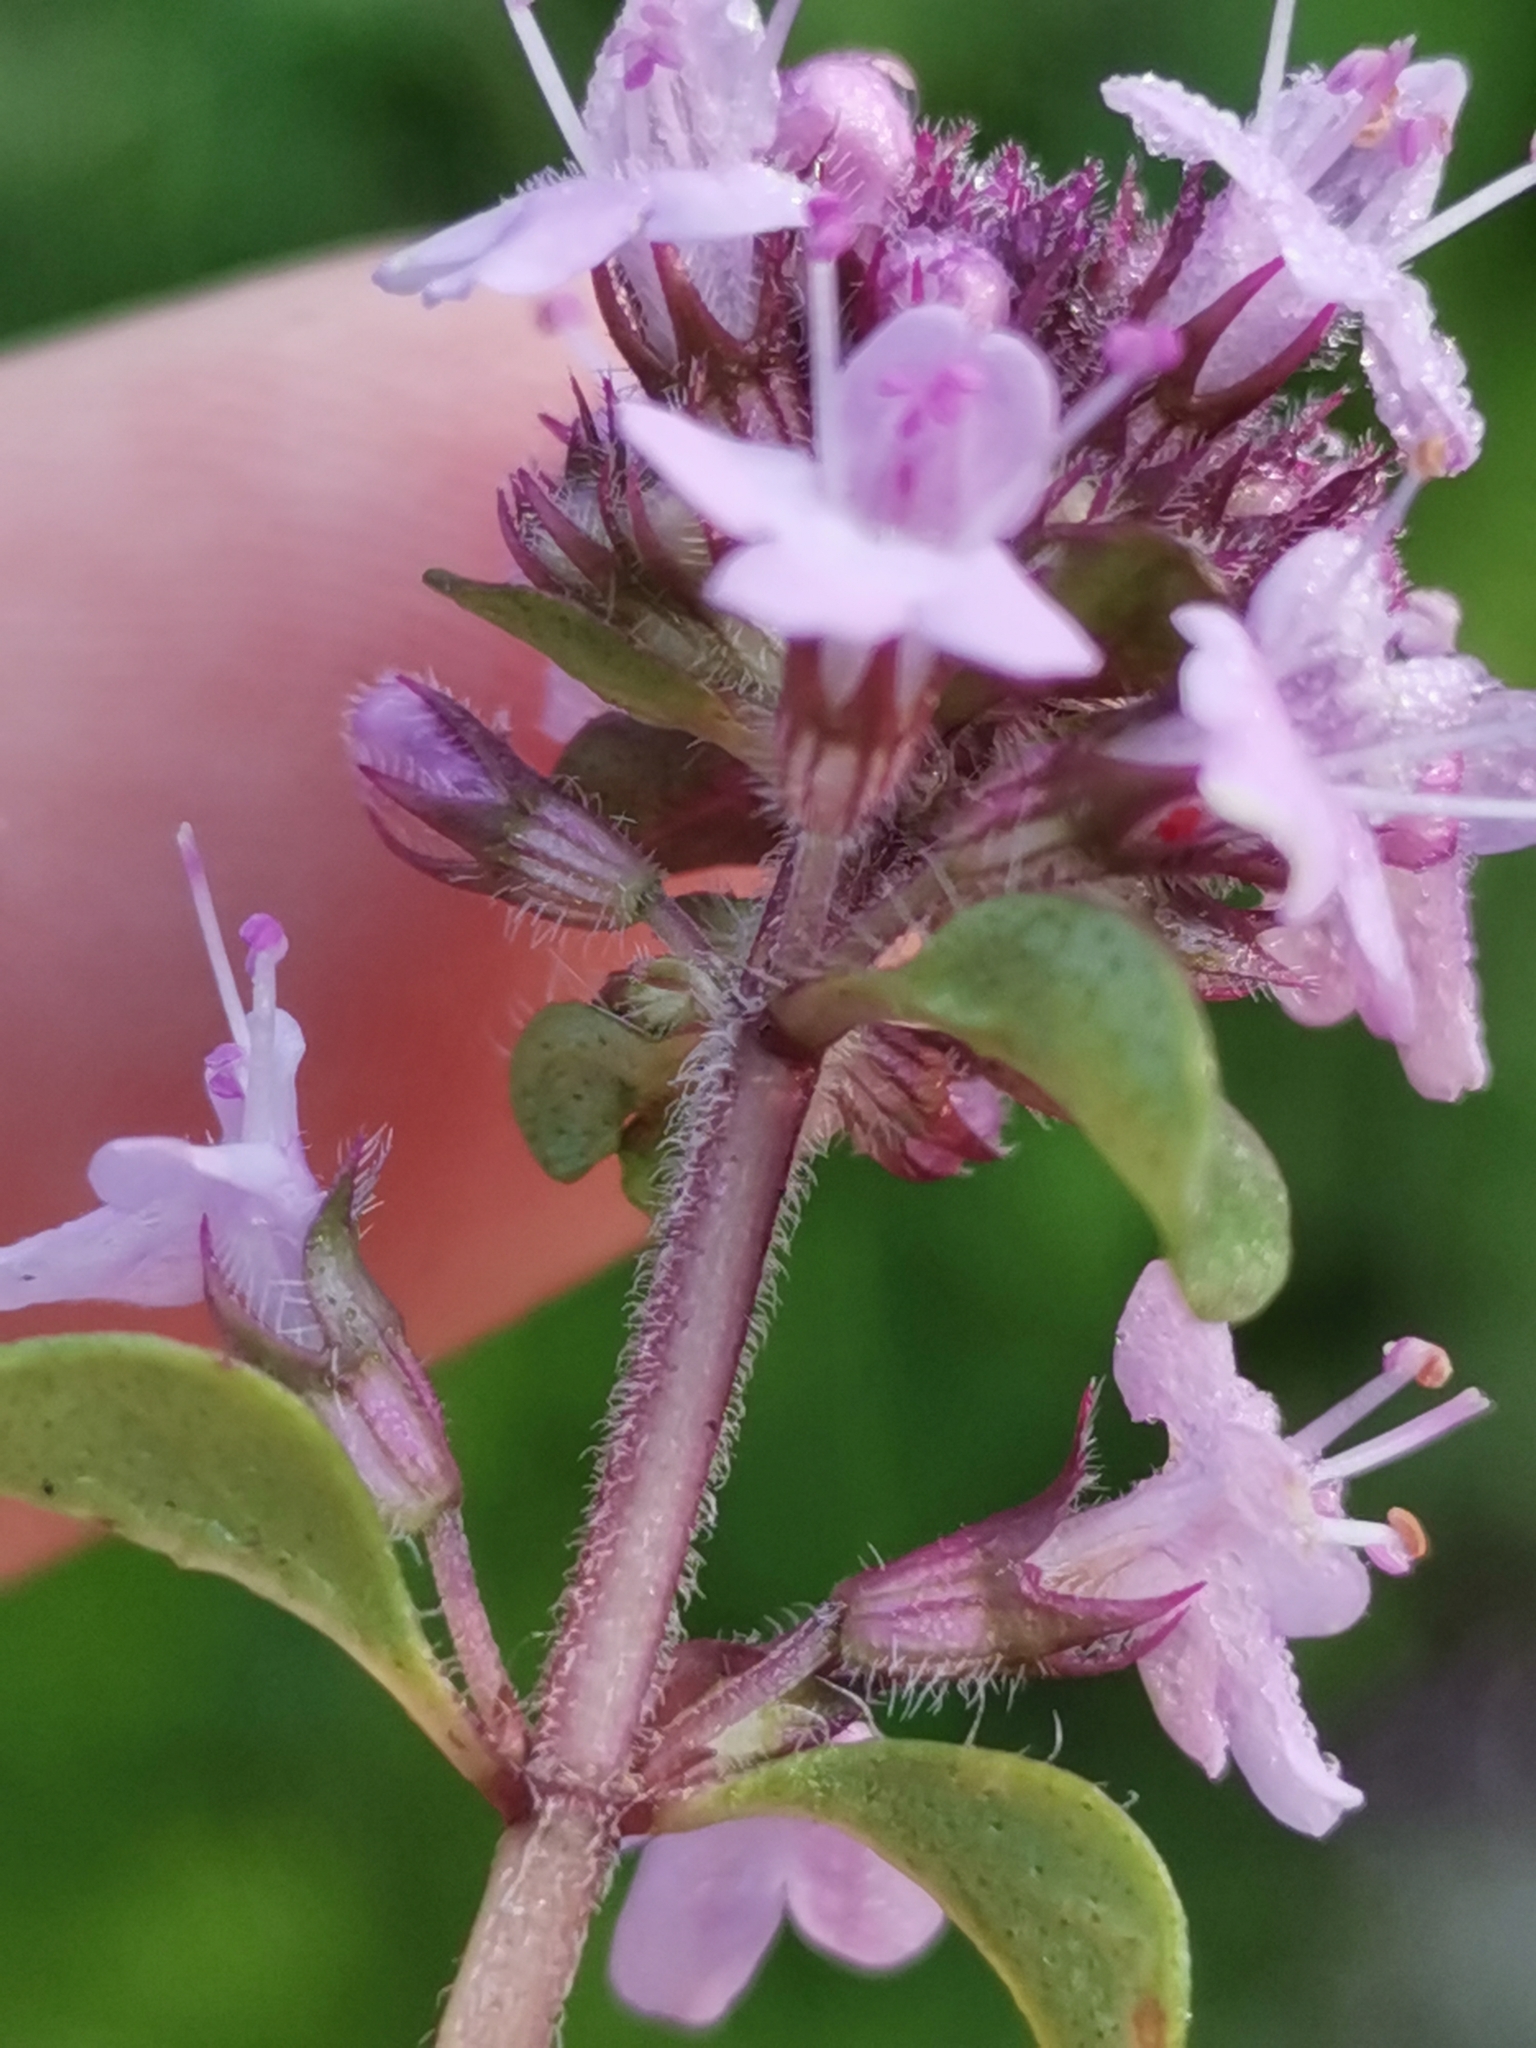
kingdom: Plantae
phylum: Tracheophyta
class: Magnoliopsida
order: Lamiales
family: Lamiaceae
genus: Thymus
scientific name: Thymus praecox
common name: Wild thyme
